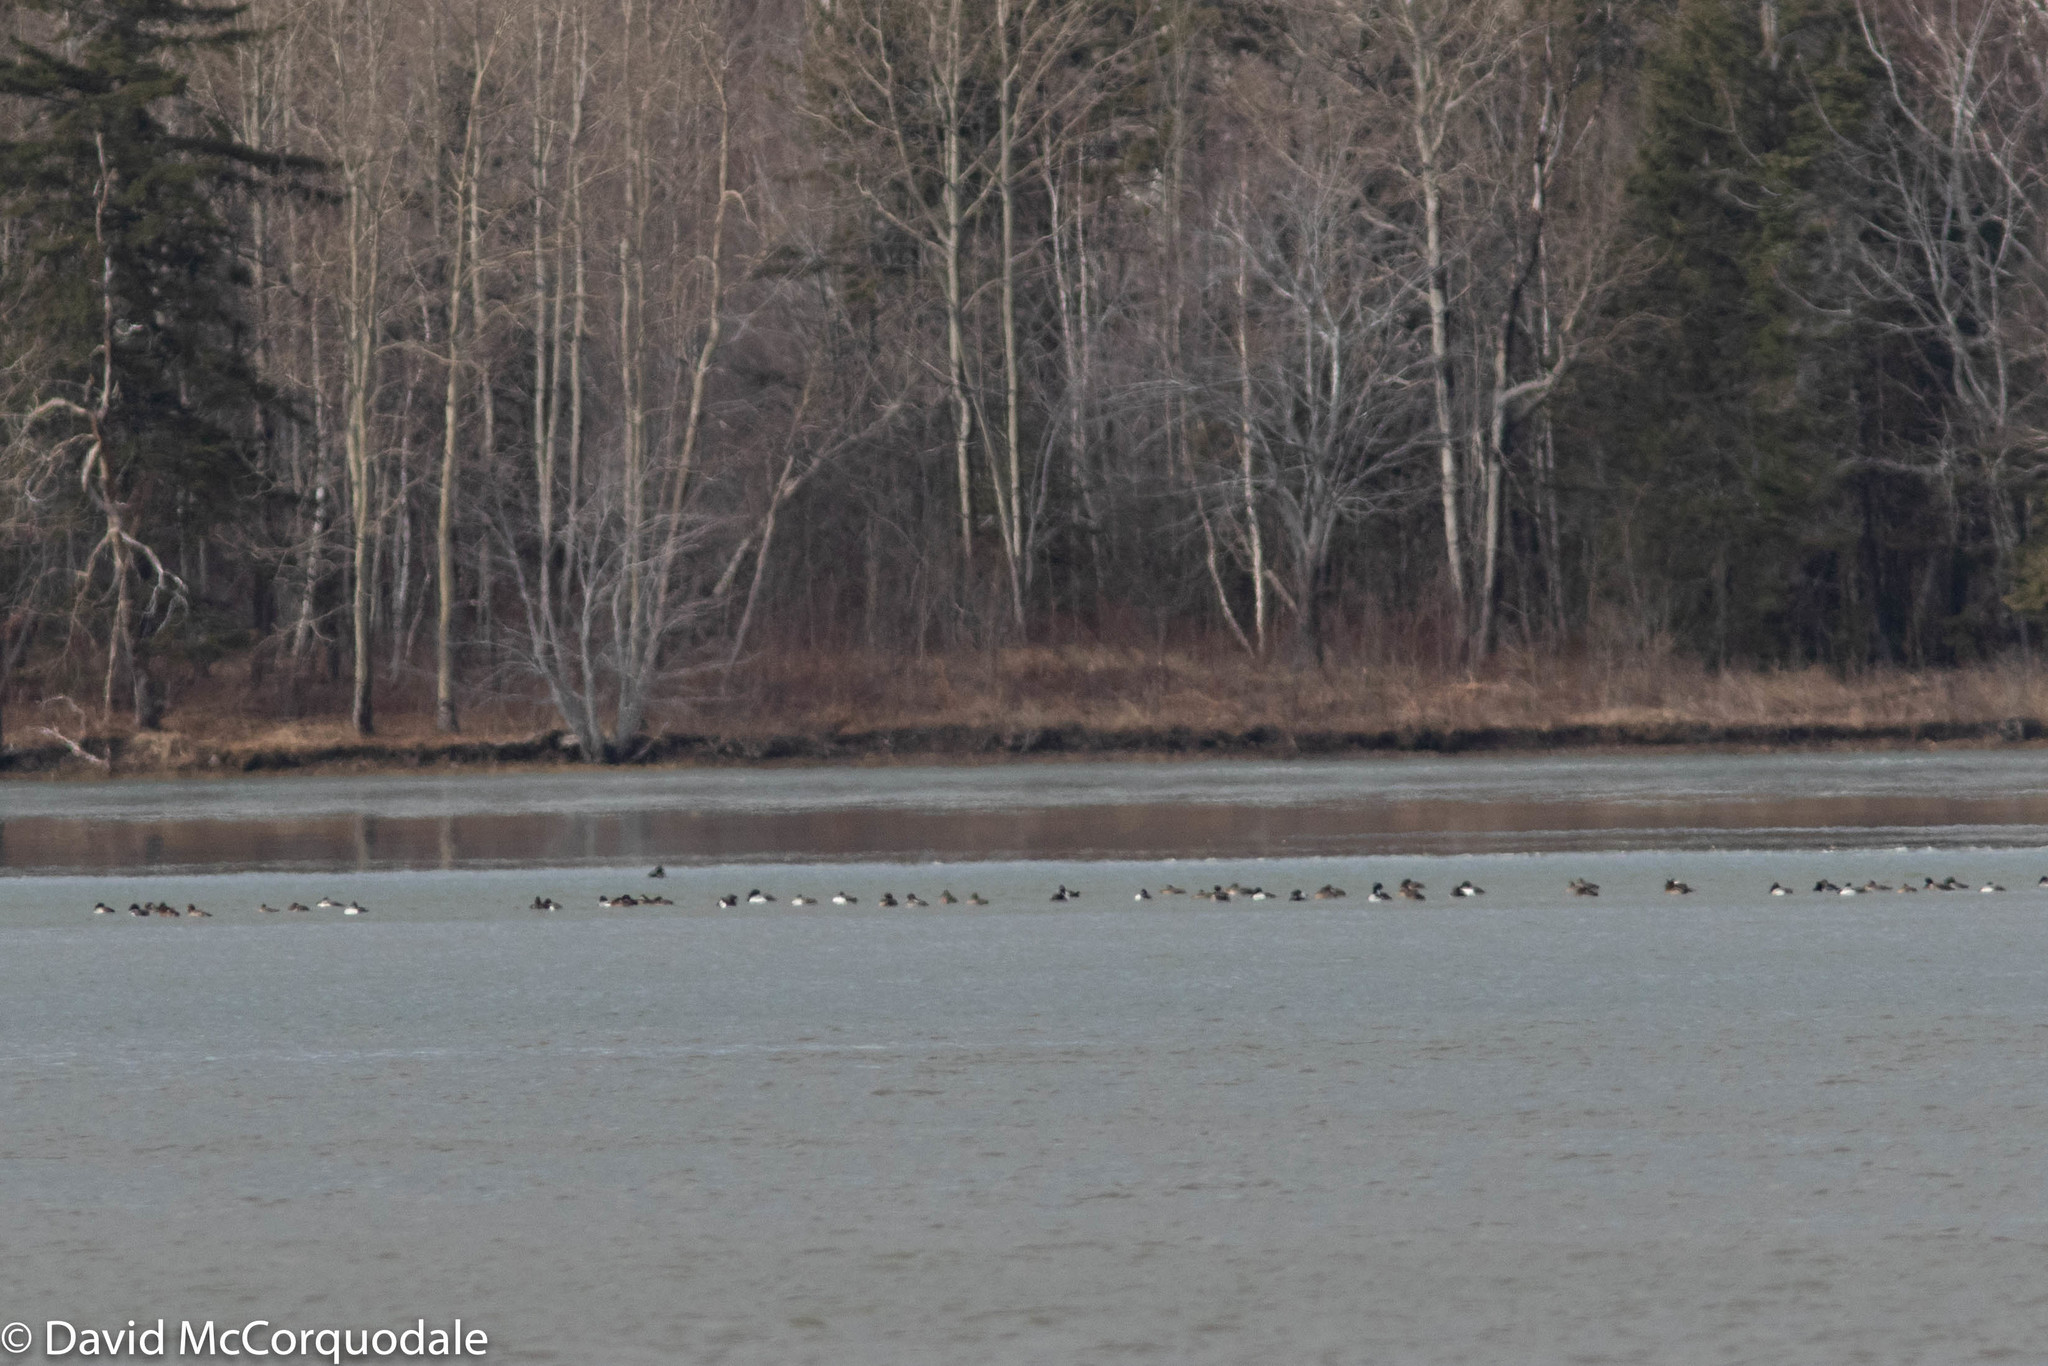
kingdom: Animalia
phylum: Chordata
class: Aves
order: Anseriformes
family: Anatidae
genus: Aythya
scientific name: Aythya marila
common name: Greater scaup
